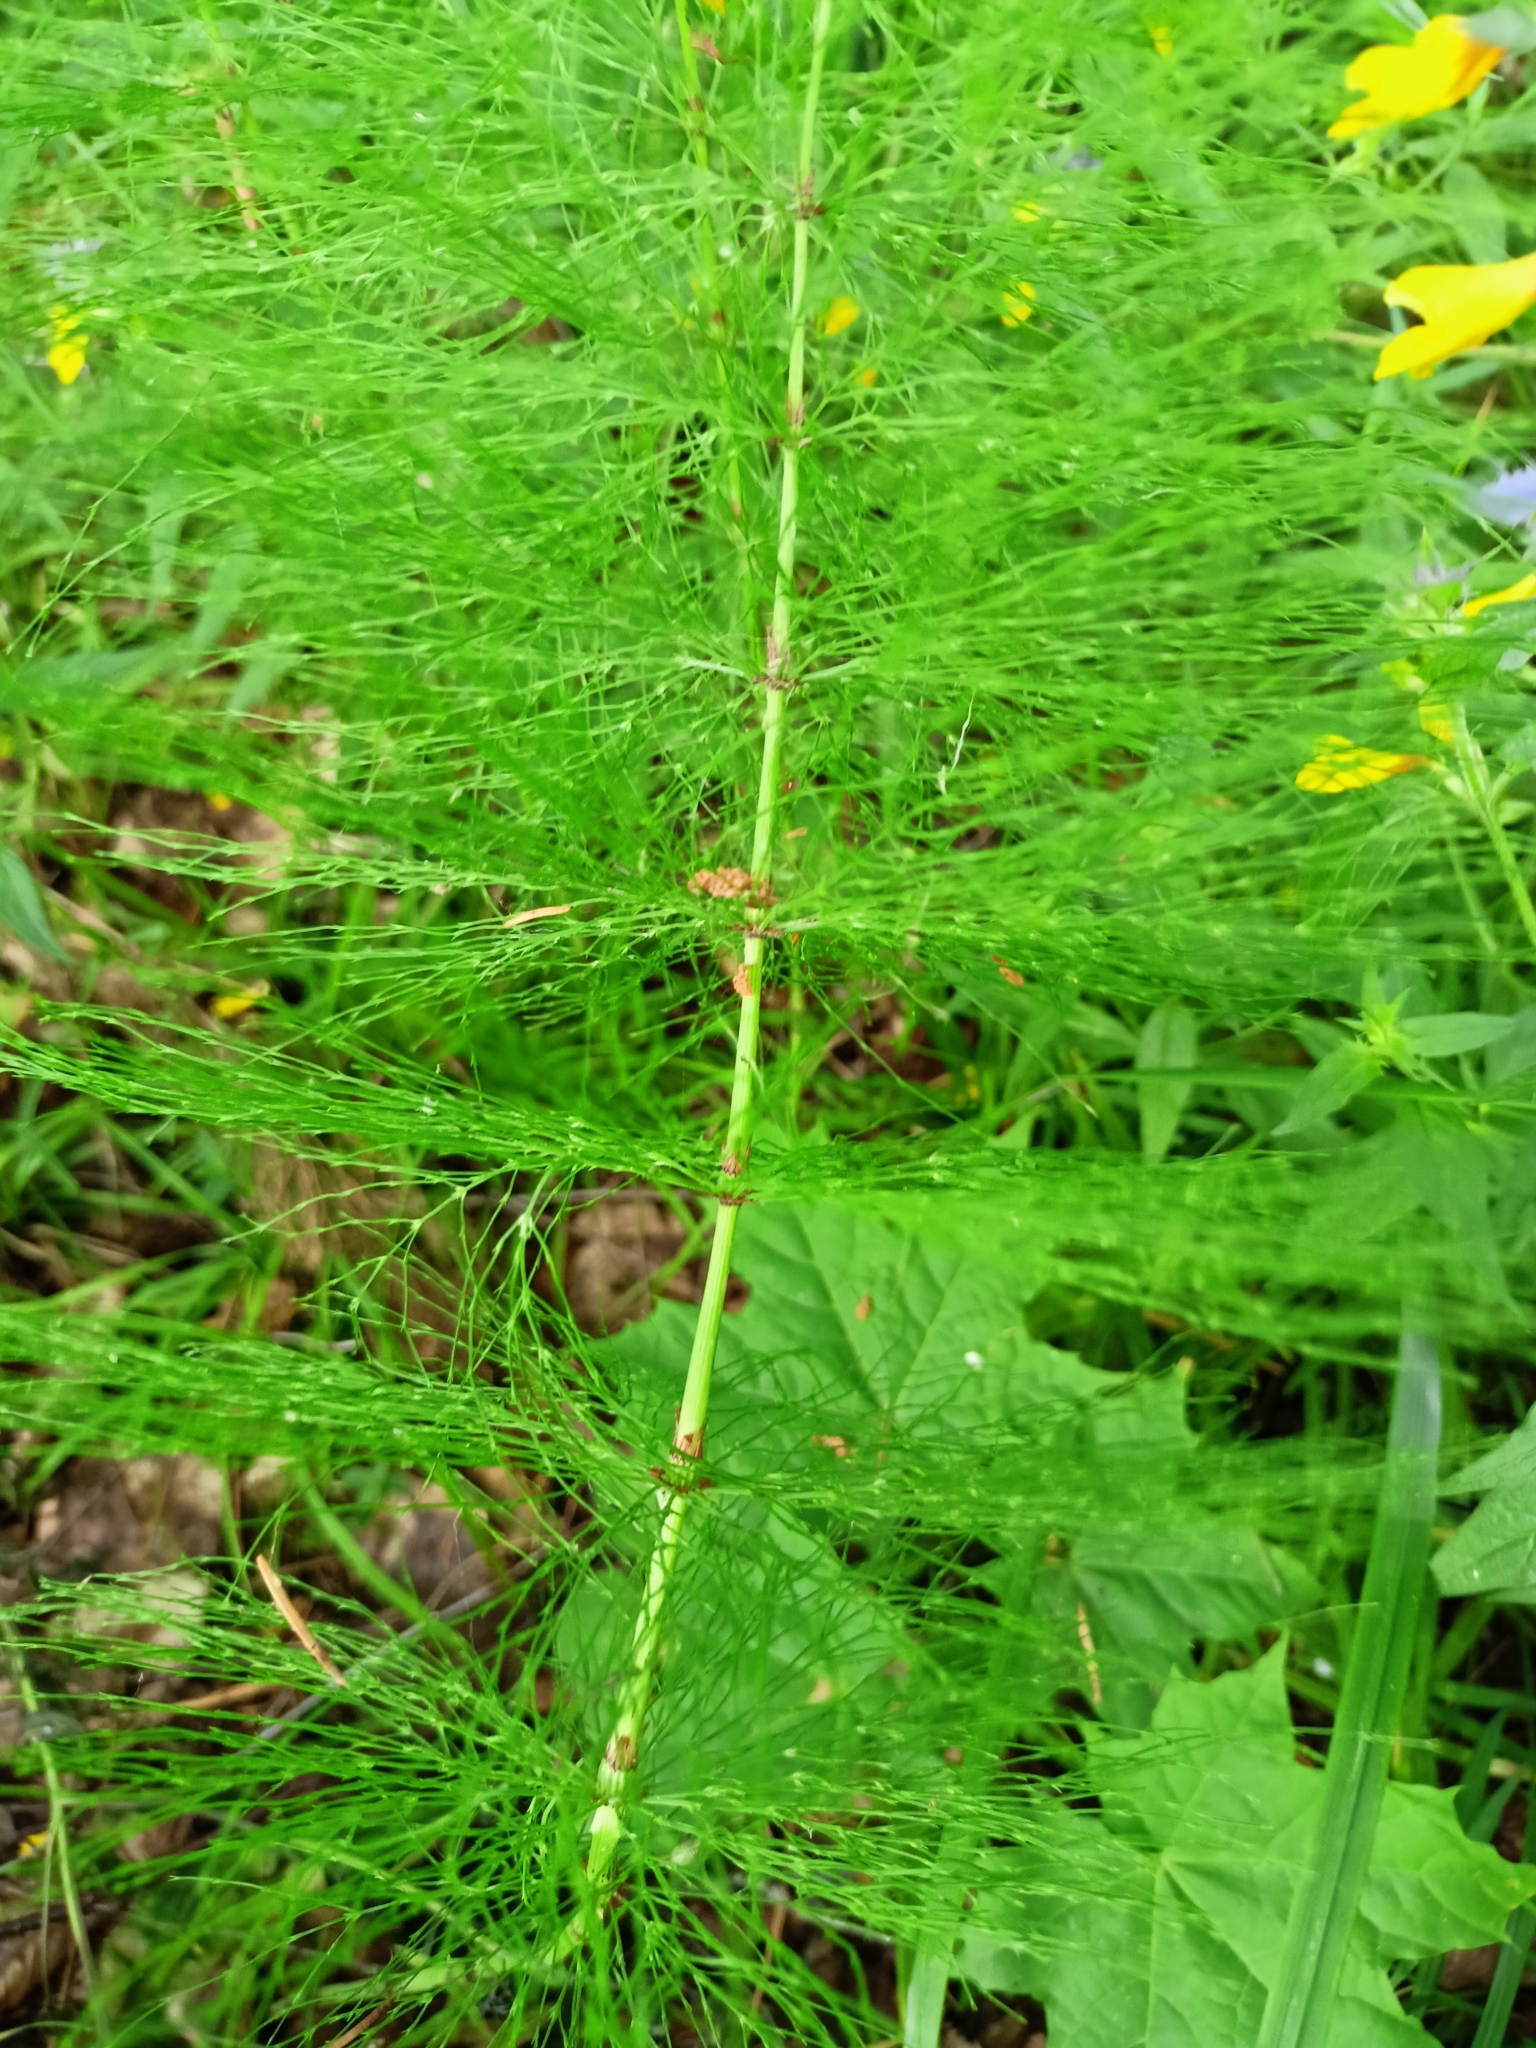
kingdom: Plantae
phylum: Tracheophyta
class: Polypodiopsida
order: Equisetales
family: Equisetaceae
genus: Equisetum
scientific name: Equisetum sylvaticum
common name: Wood horsetail
